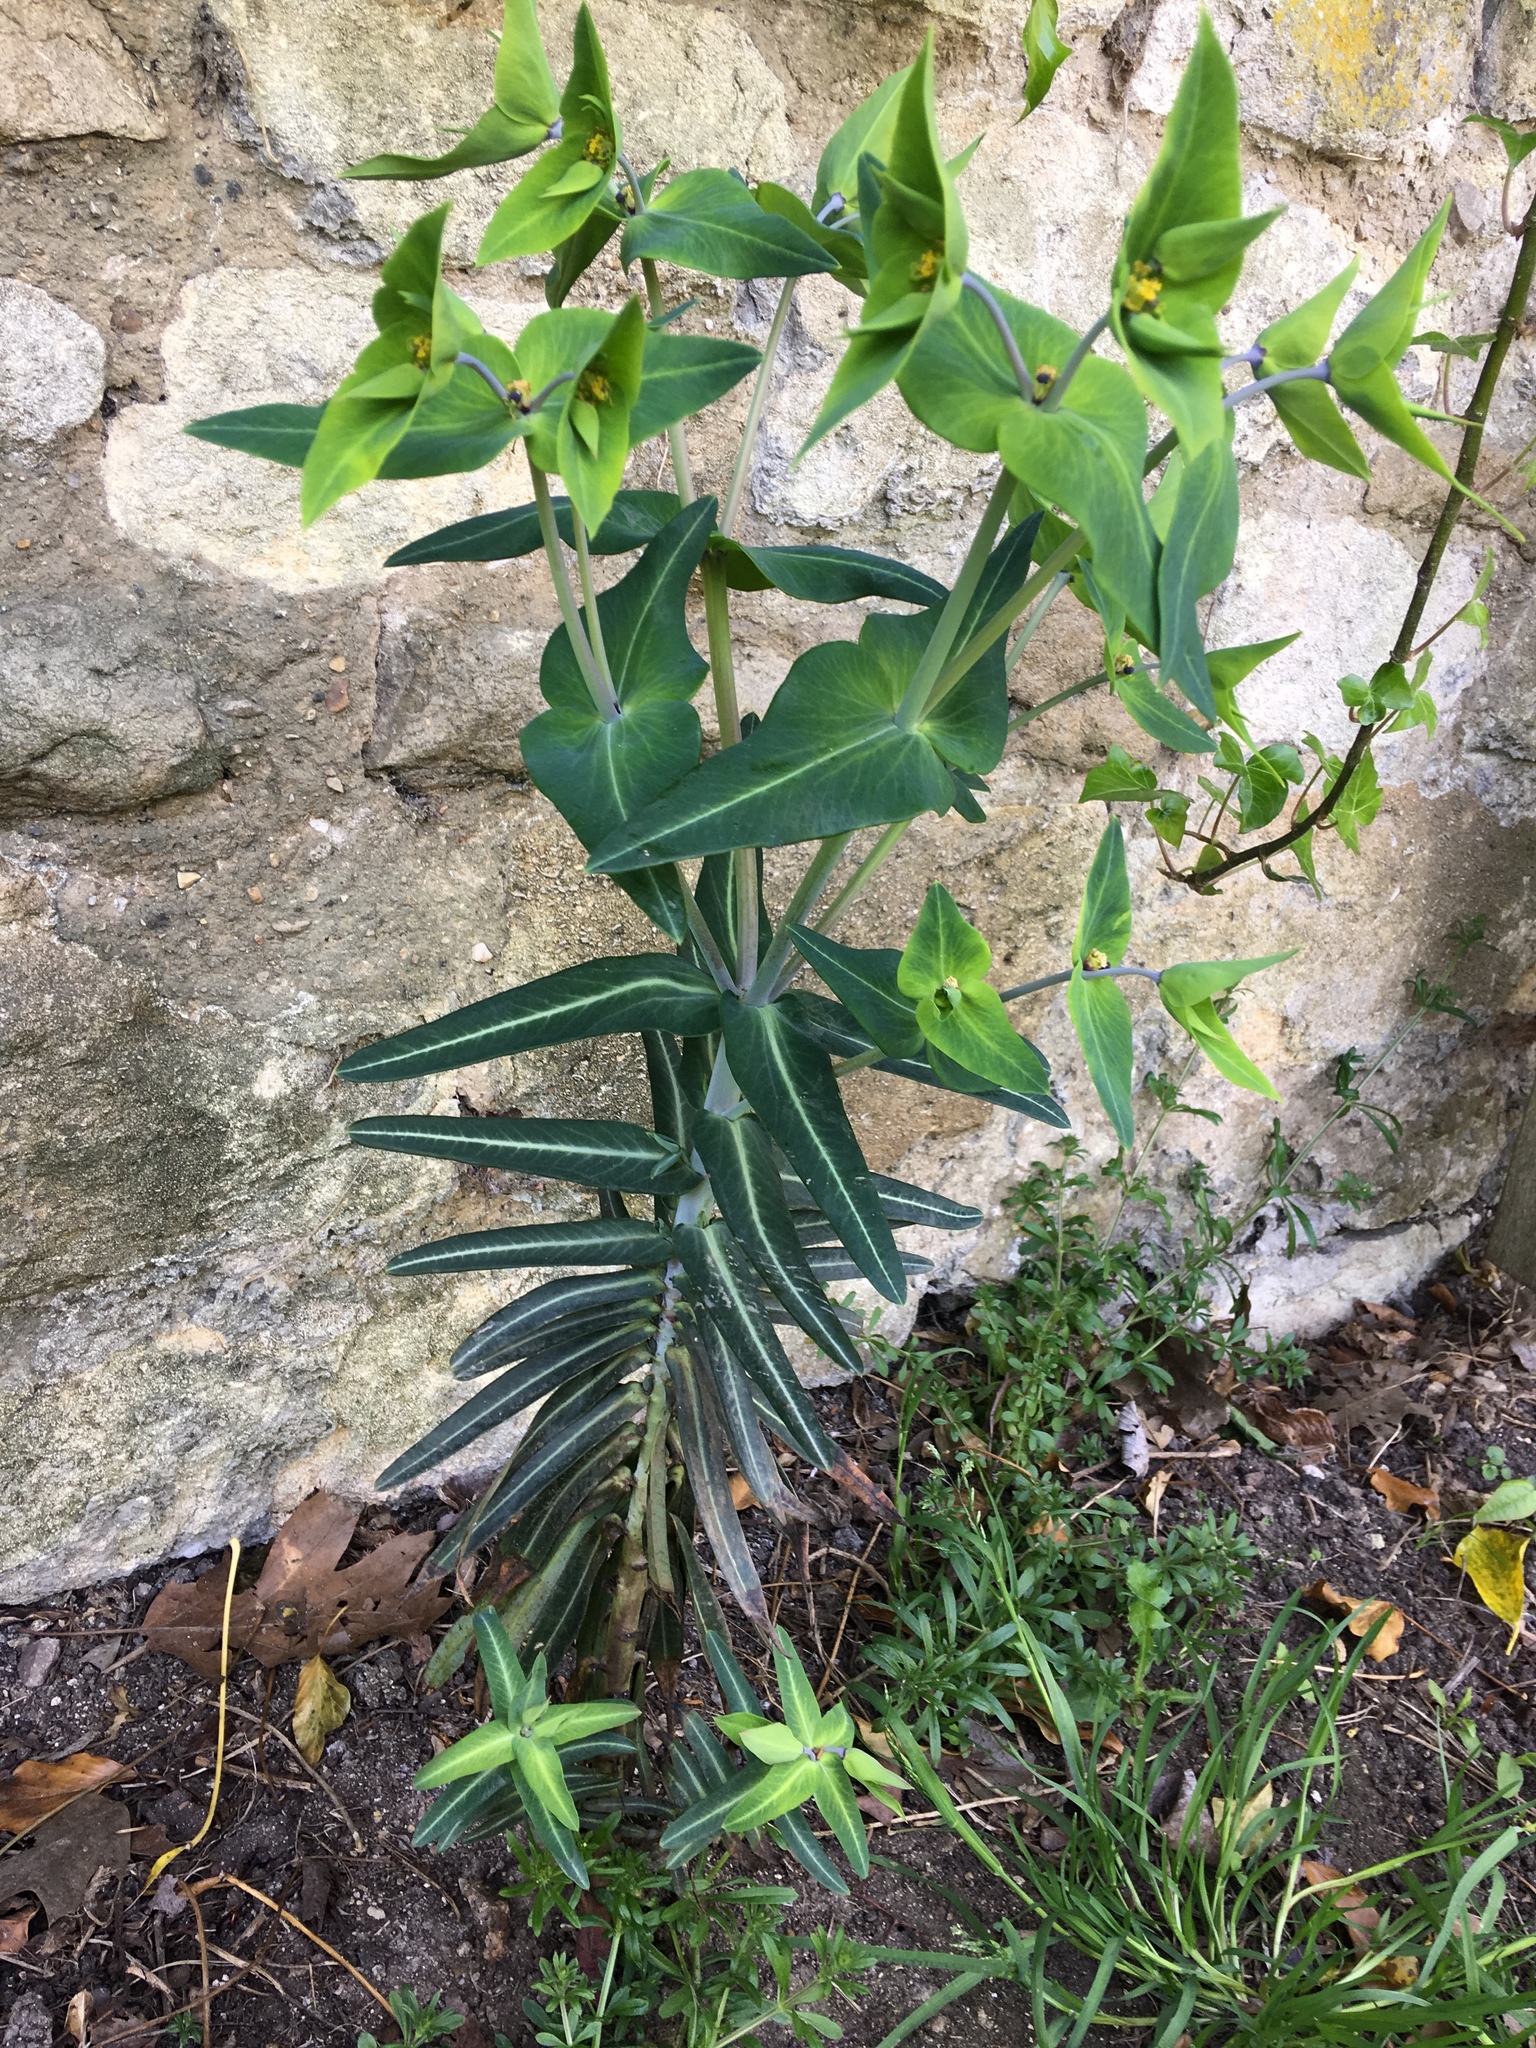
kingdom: Plantae
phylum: Tracheophyta
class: Magnoliopsida
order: Malpighiales
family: Euphorbiaceae
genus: Euphorbia
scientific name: Euphorbia lathyris
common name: Caper spurge
